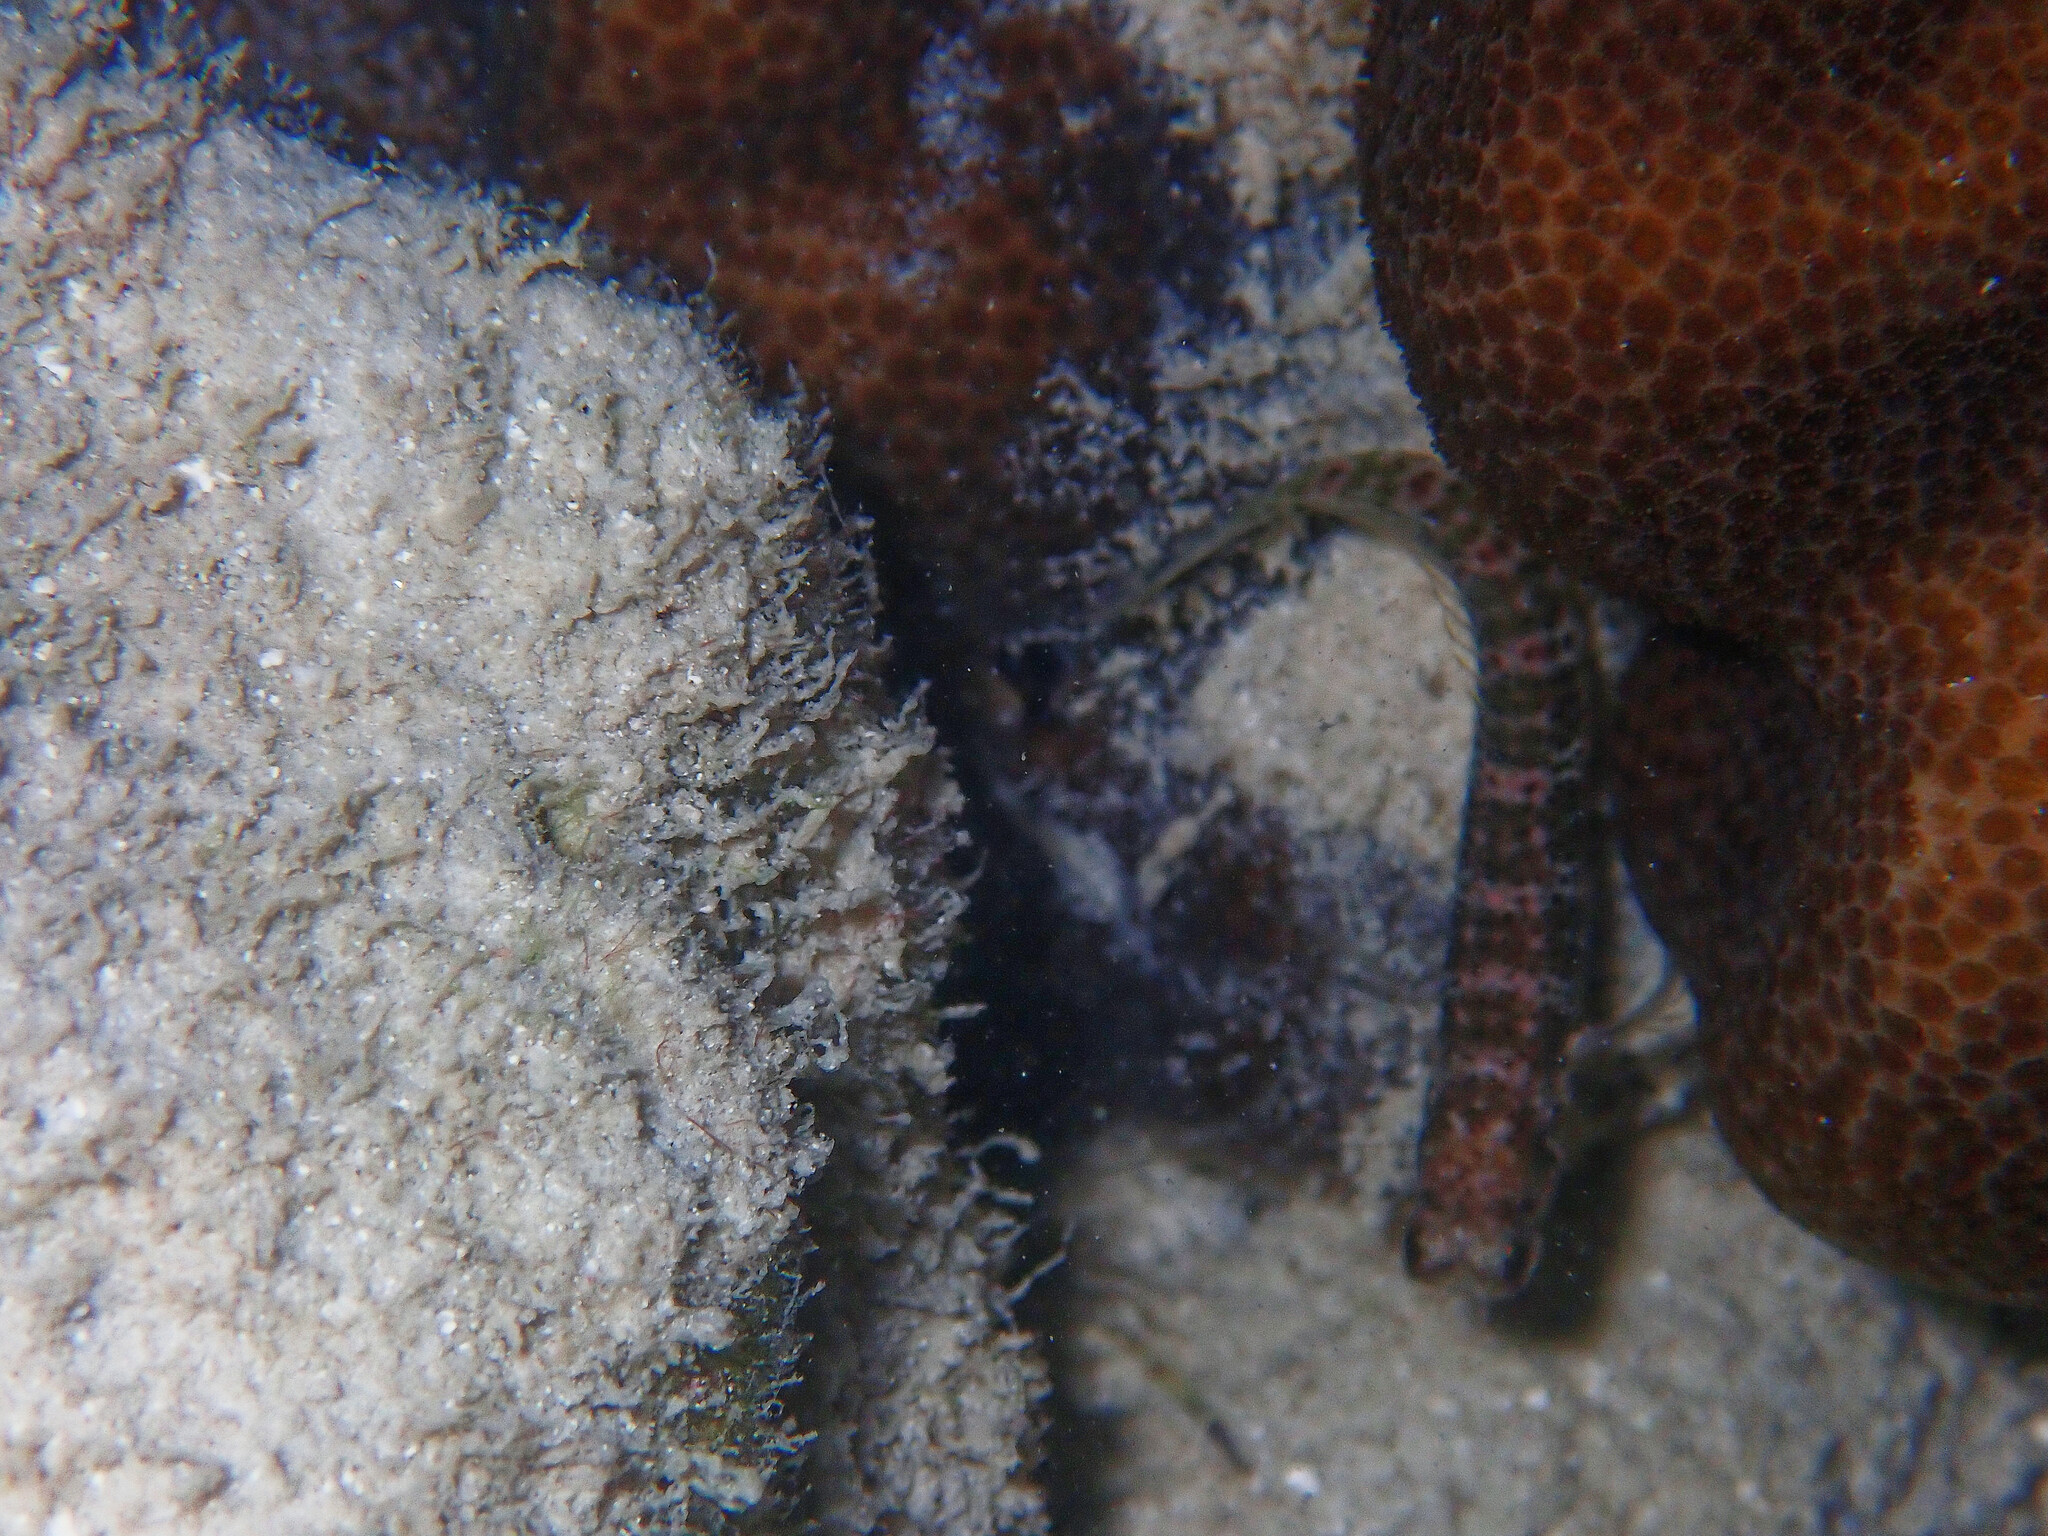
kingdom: Animalia
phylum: Chordata
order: Perciformes
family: Blenniidae
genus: Salarias
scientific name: Salarias guttatus
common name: Breast-spot blenny
